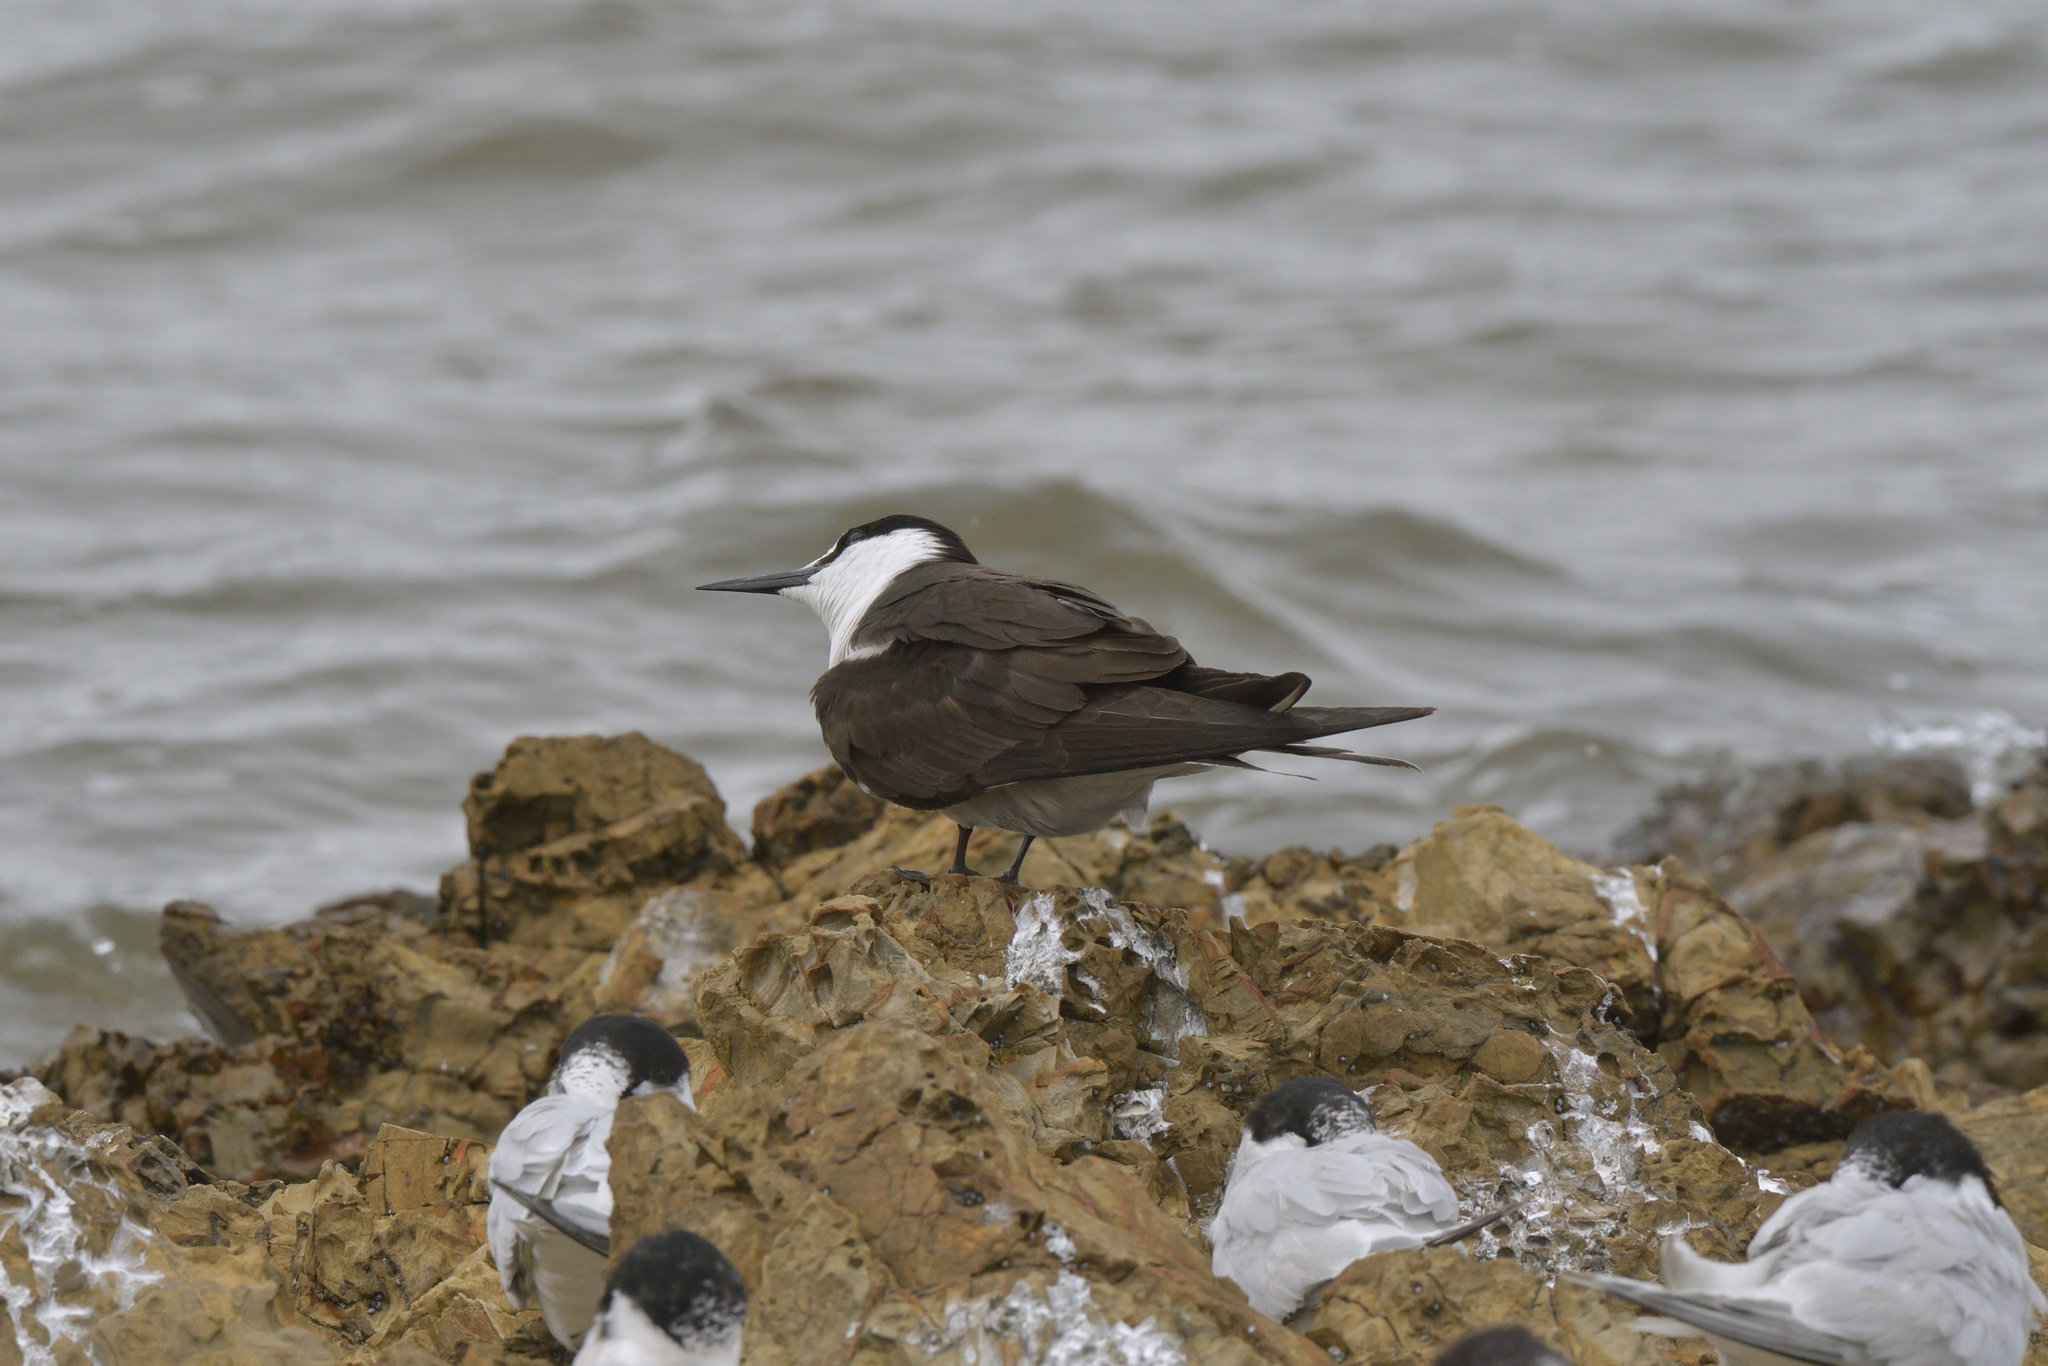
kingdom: Animalia
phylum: Chordata
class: Aves
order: Charadriiformes
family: Laridae
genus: Onychoprion
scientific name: Onychoprion fuscatus
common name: Sooty tern
